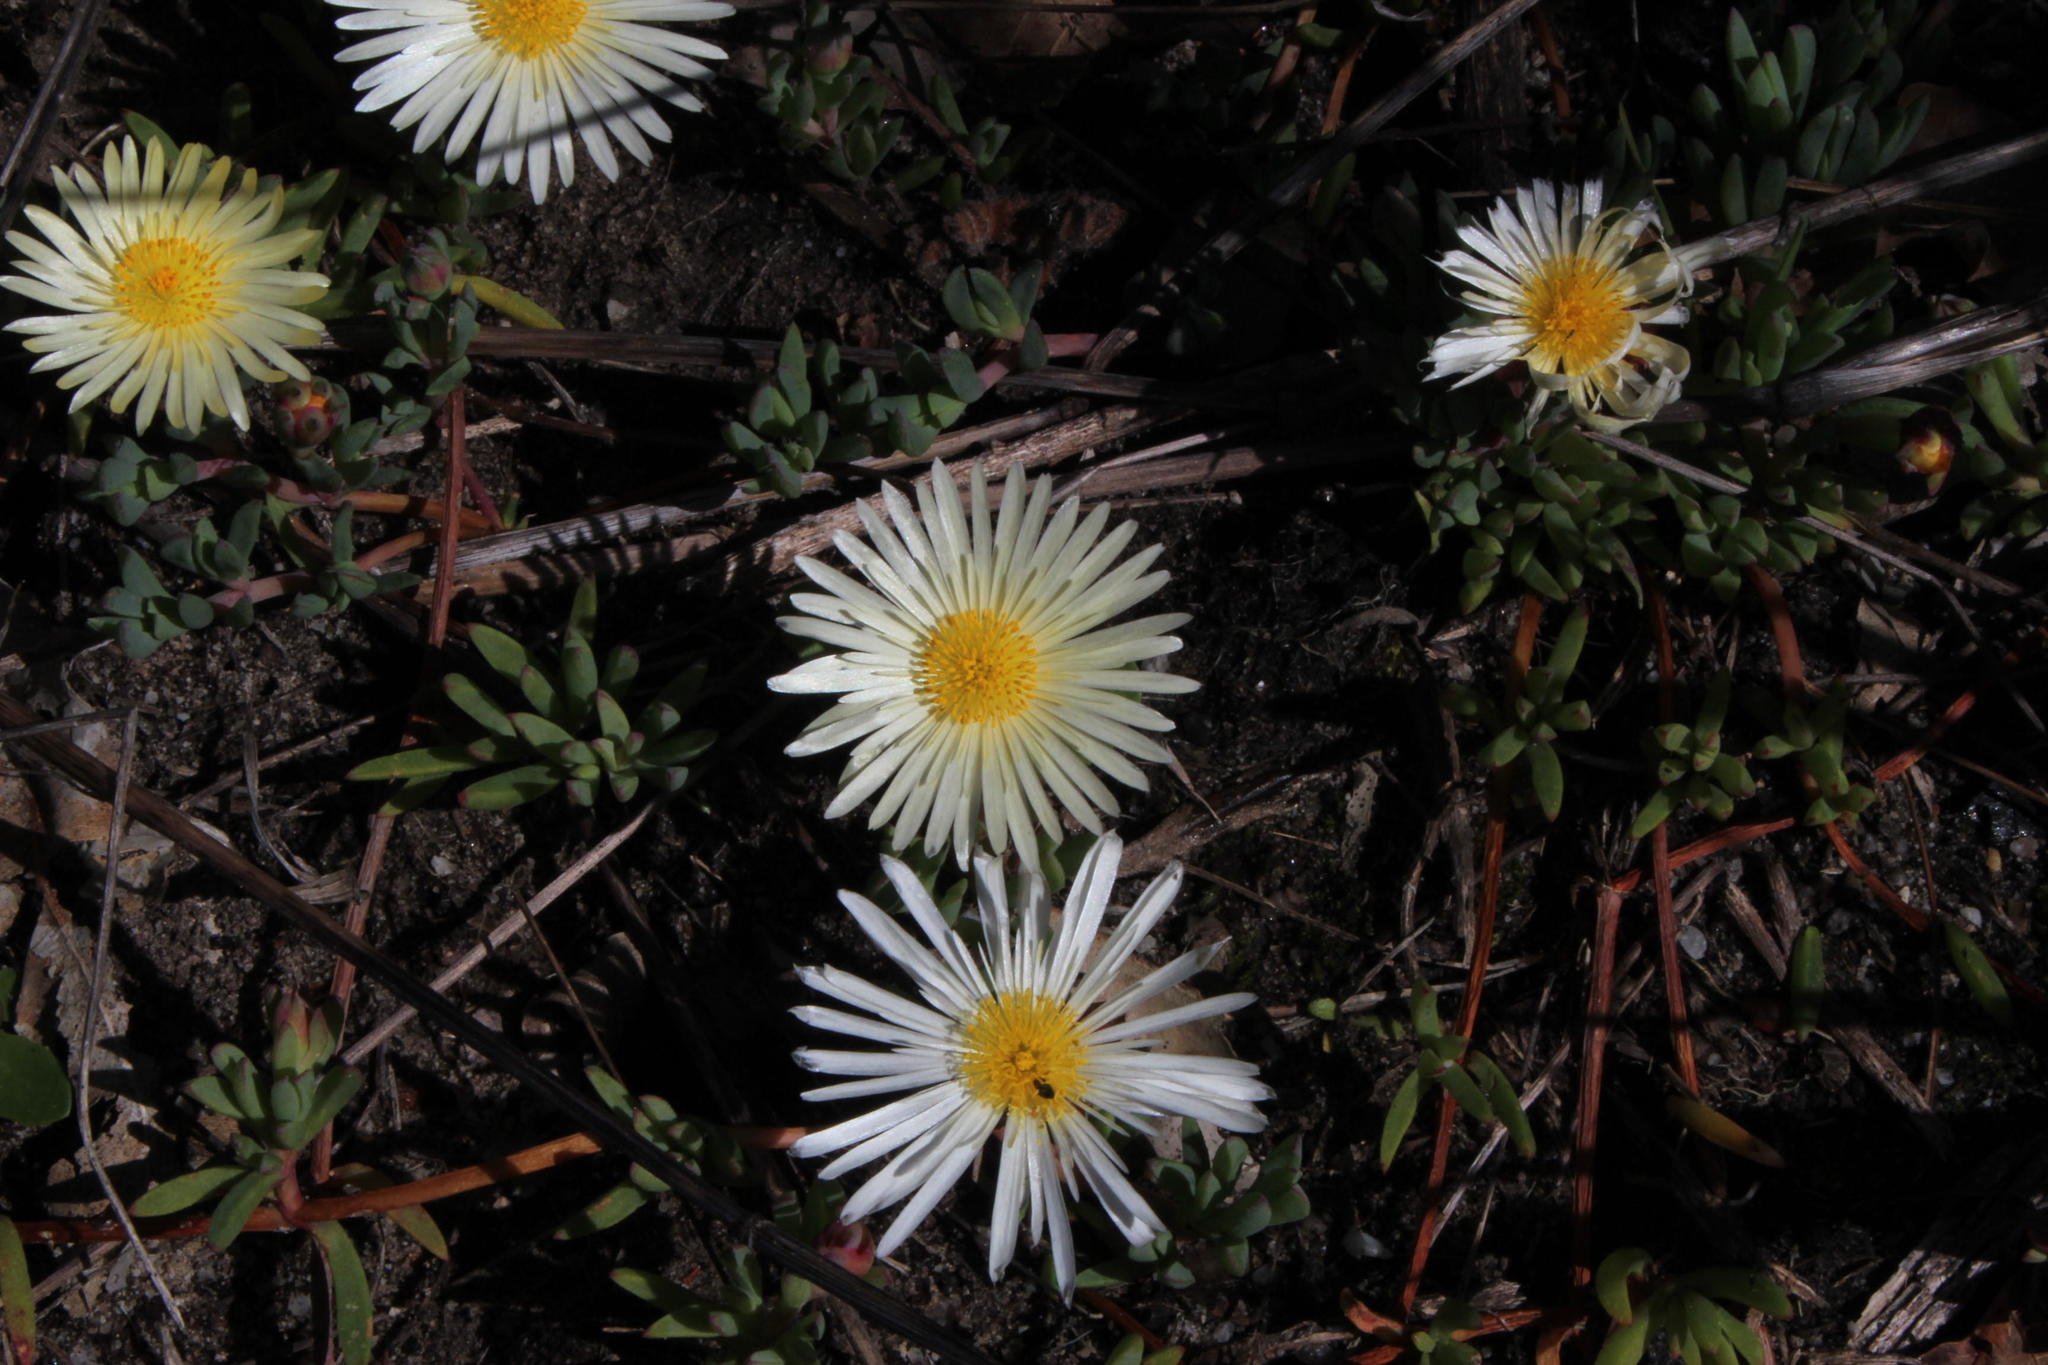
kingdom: Plantae
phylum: Tracheophyta
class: Magnoliopsida
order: Caryophyllales
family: Aizoaceae
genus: Lampranthus
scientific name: Lampranthus reptans
